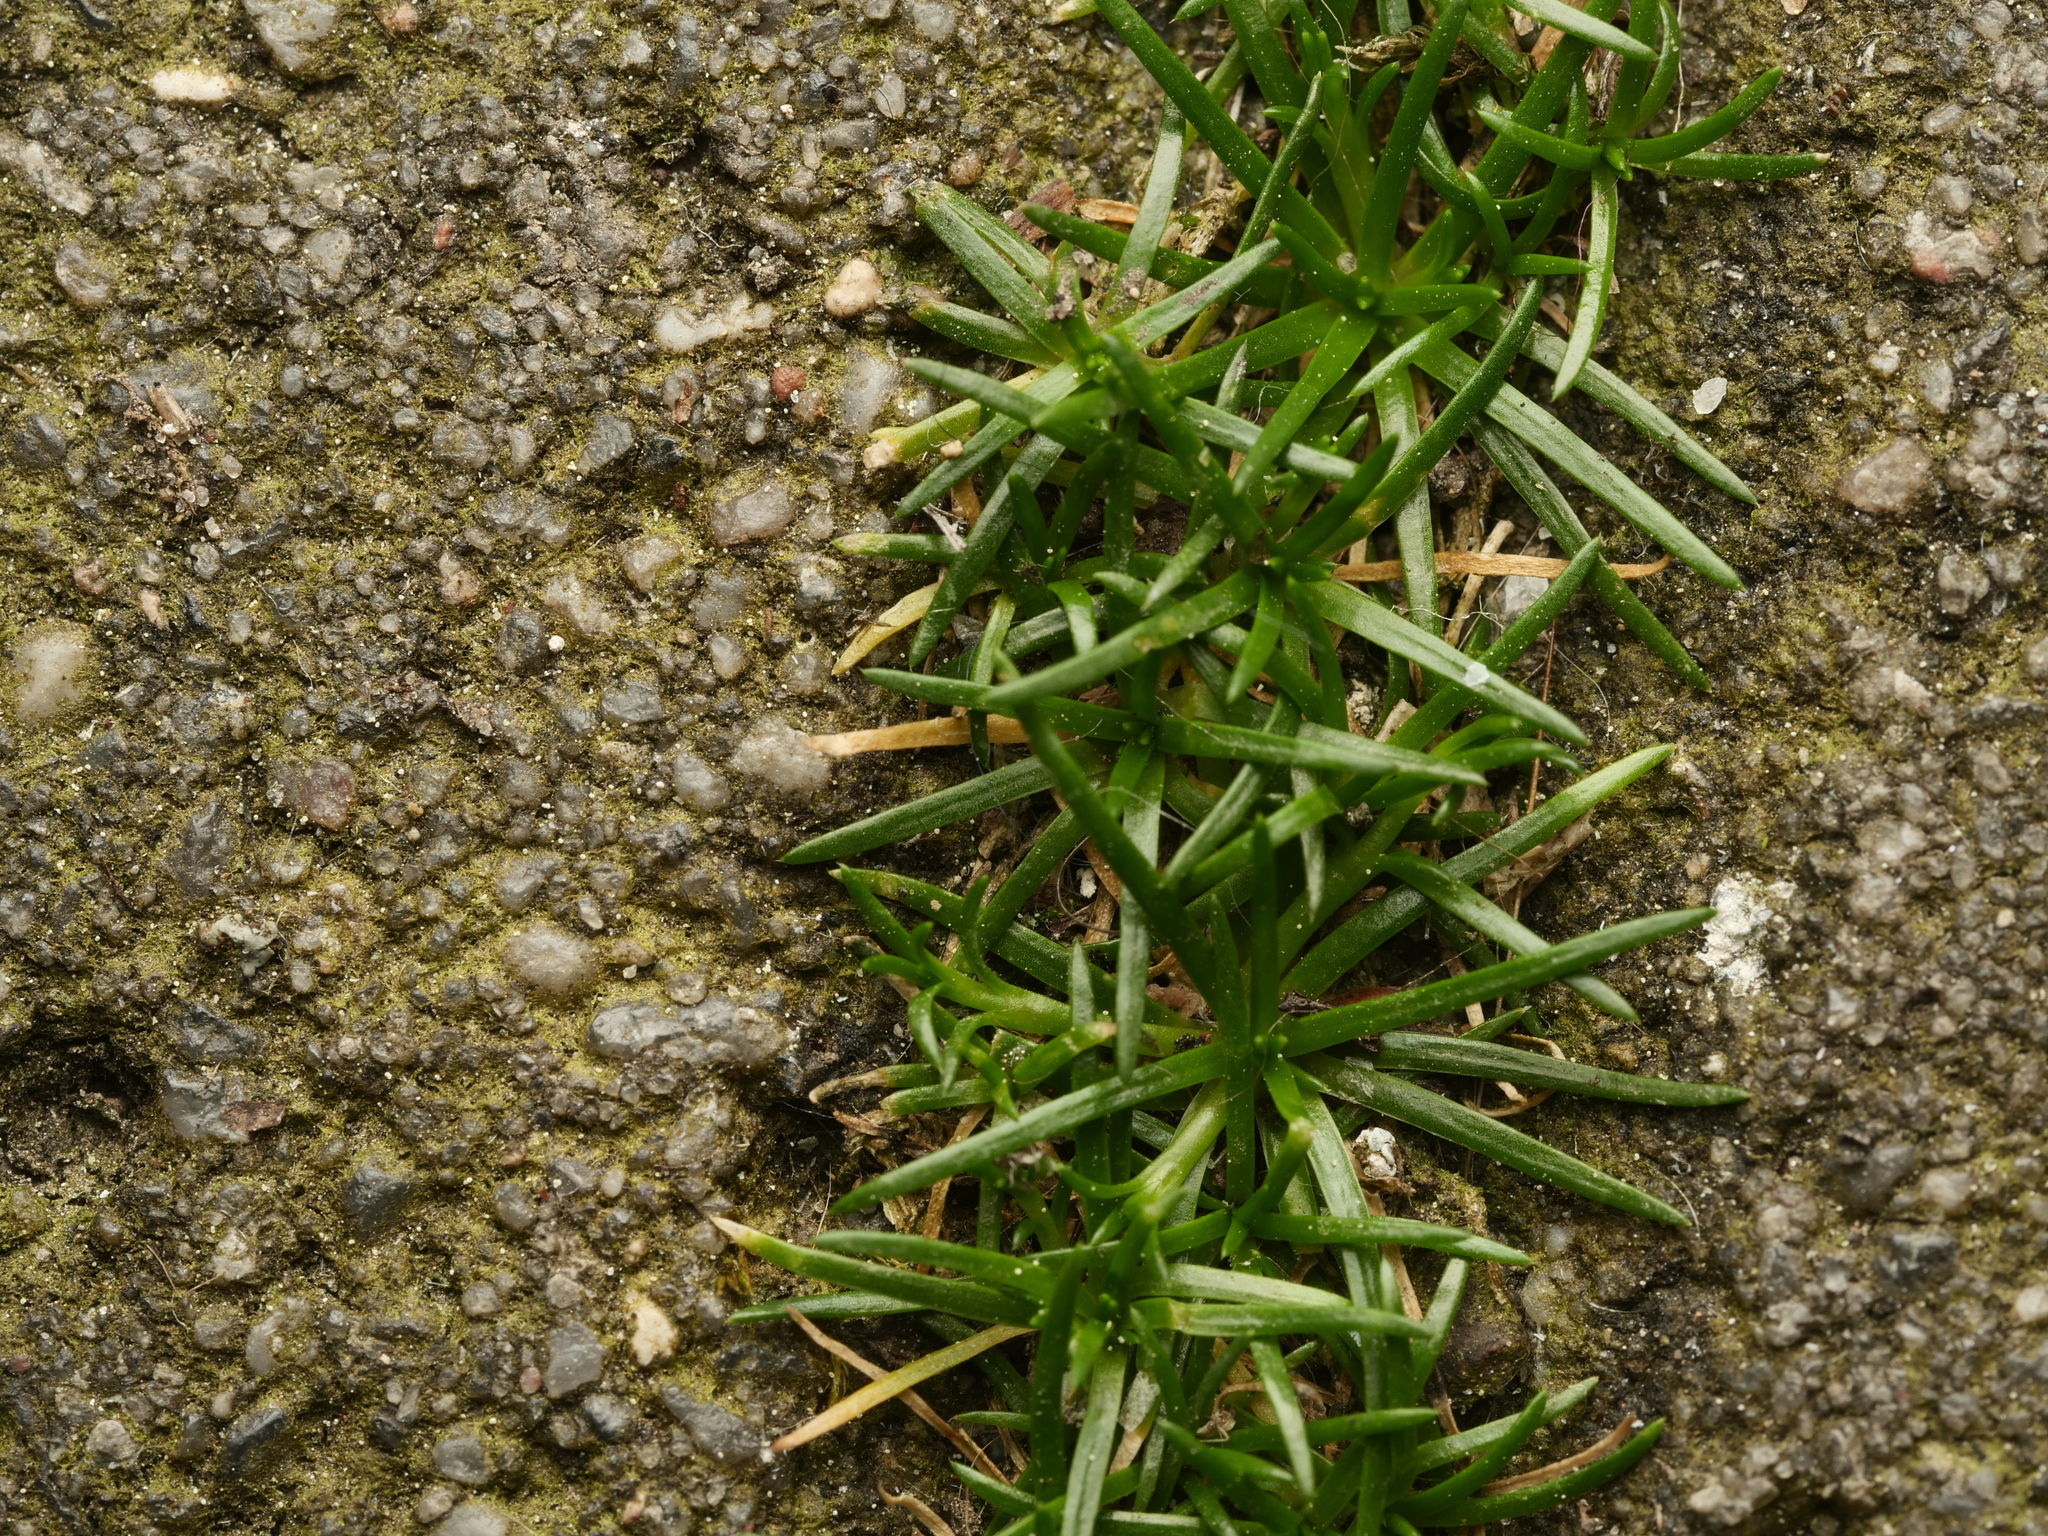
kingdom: Plantae
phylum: Tracheophyta
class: Magnoliopsida
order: Caryophyllales
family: Caryophyllaceae
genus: Sagina
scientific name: Sagina procumbens
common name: Procumbent pearlwort
